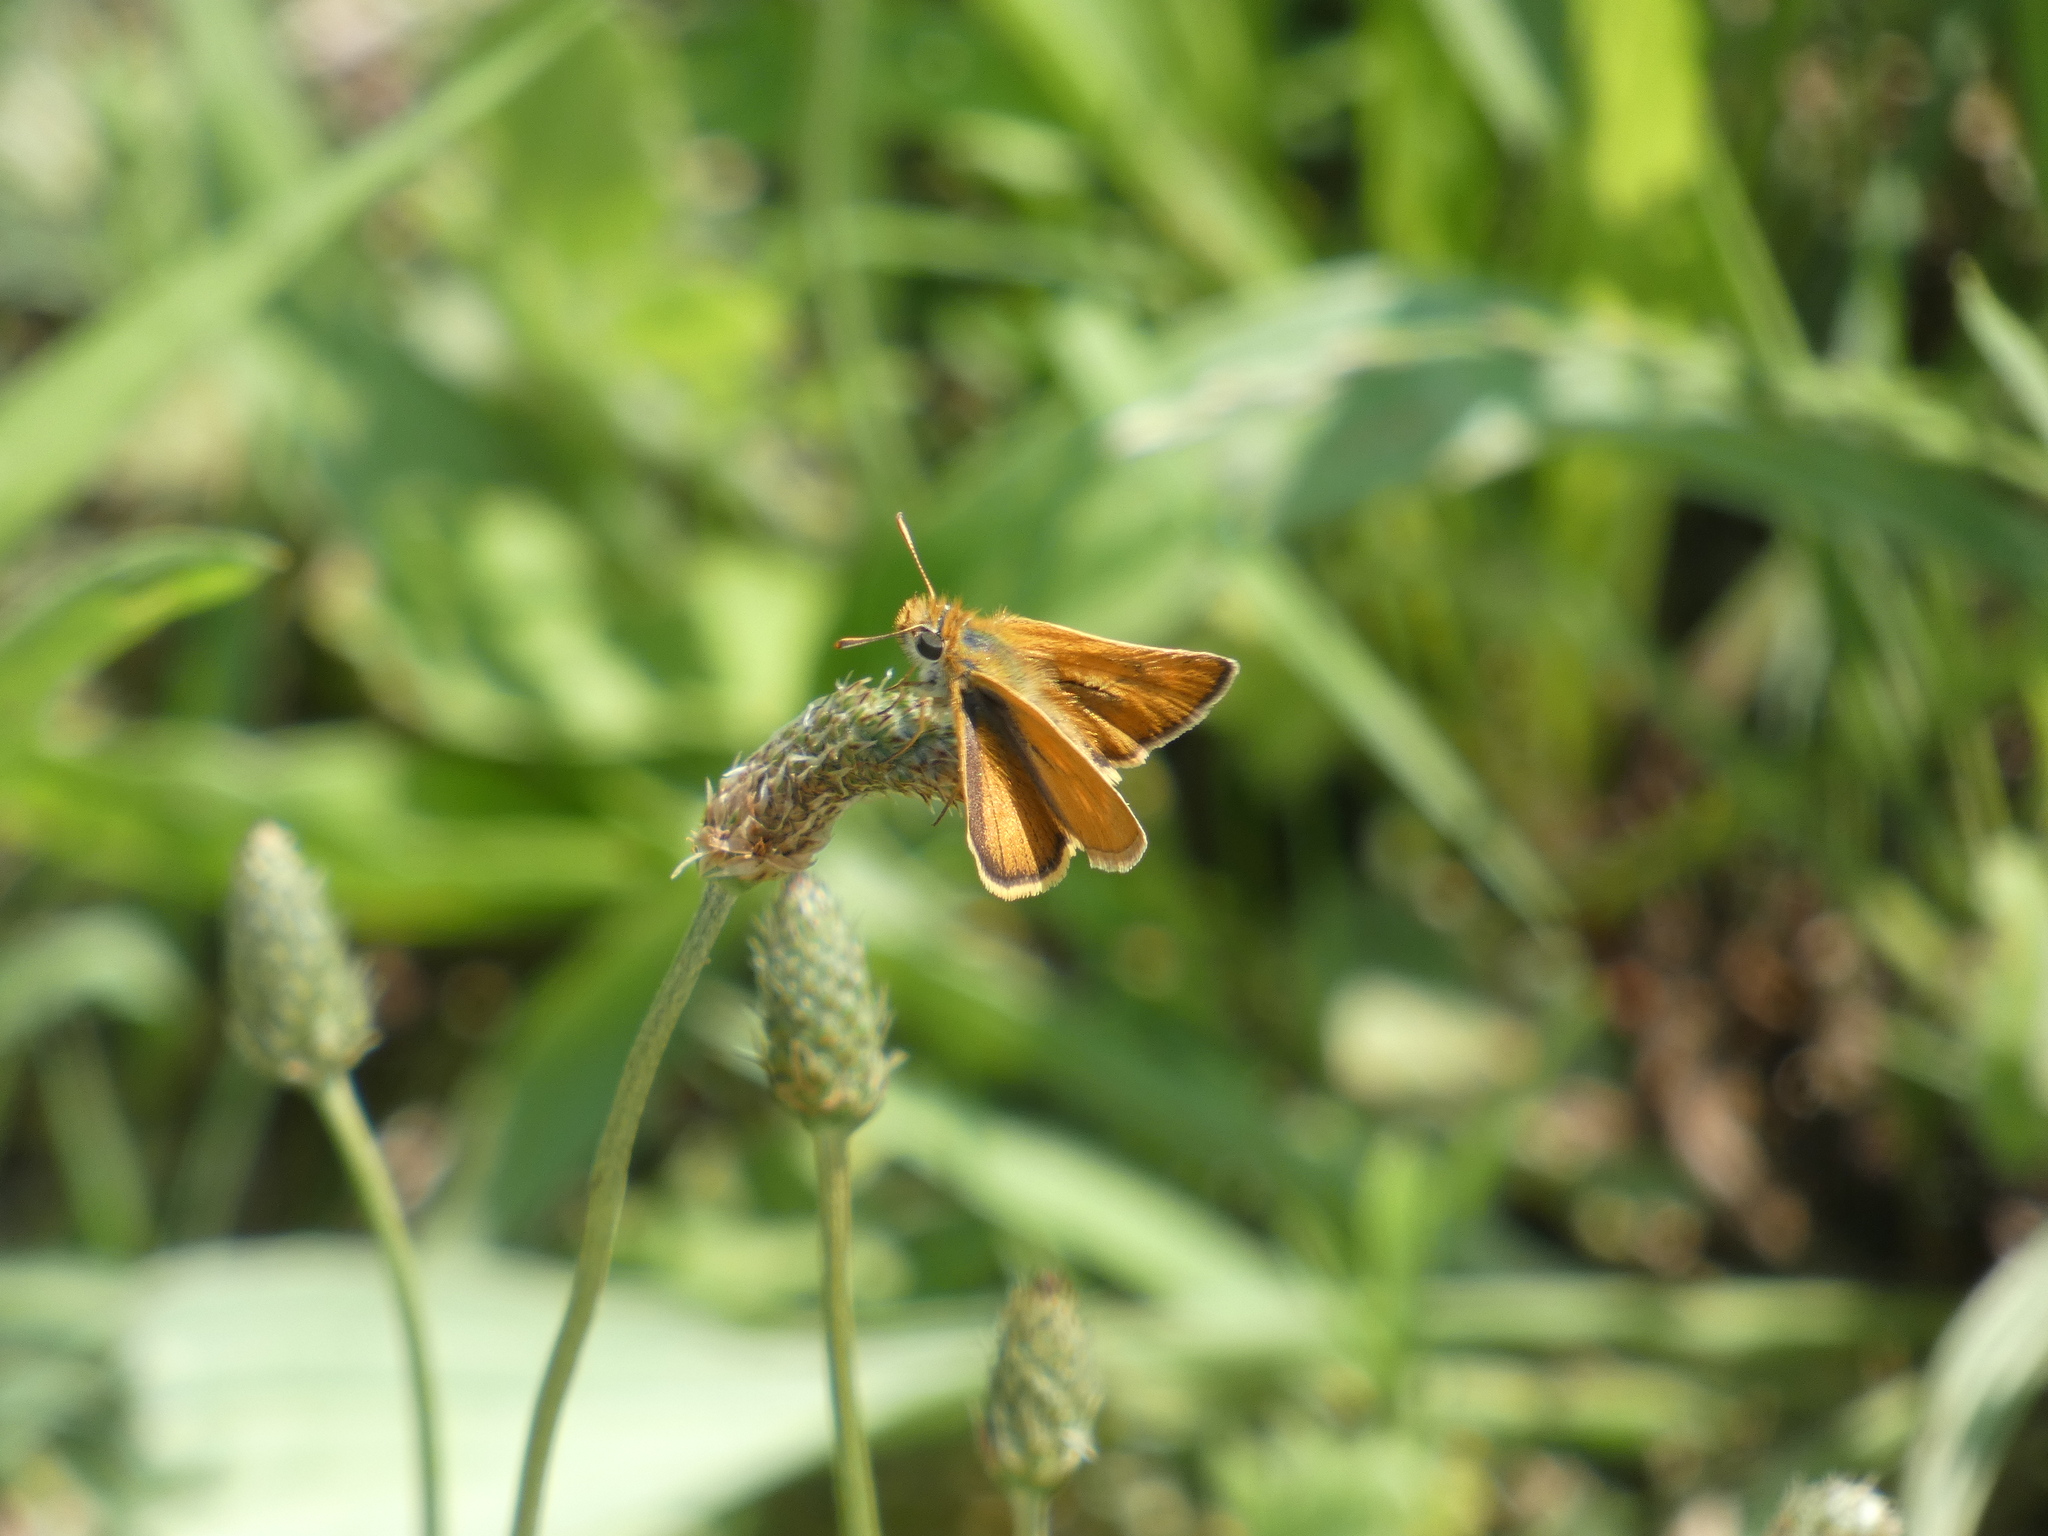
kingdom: Animalia
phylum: Arthropoda
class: Insecta
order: Lepidoptera
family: Hesperiidae
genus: Thymelicus
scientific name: Thymelicus acteon
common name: Lulworth skipper
